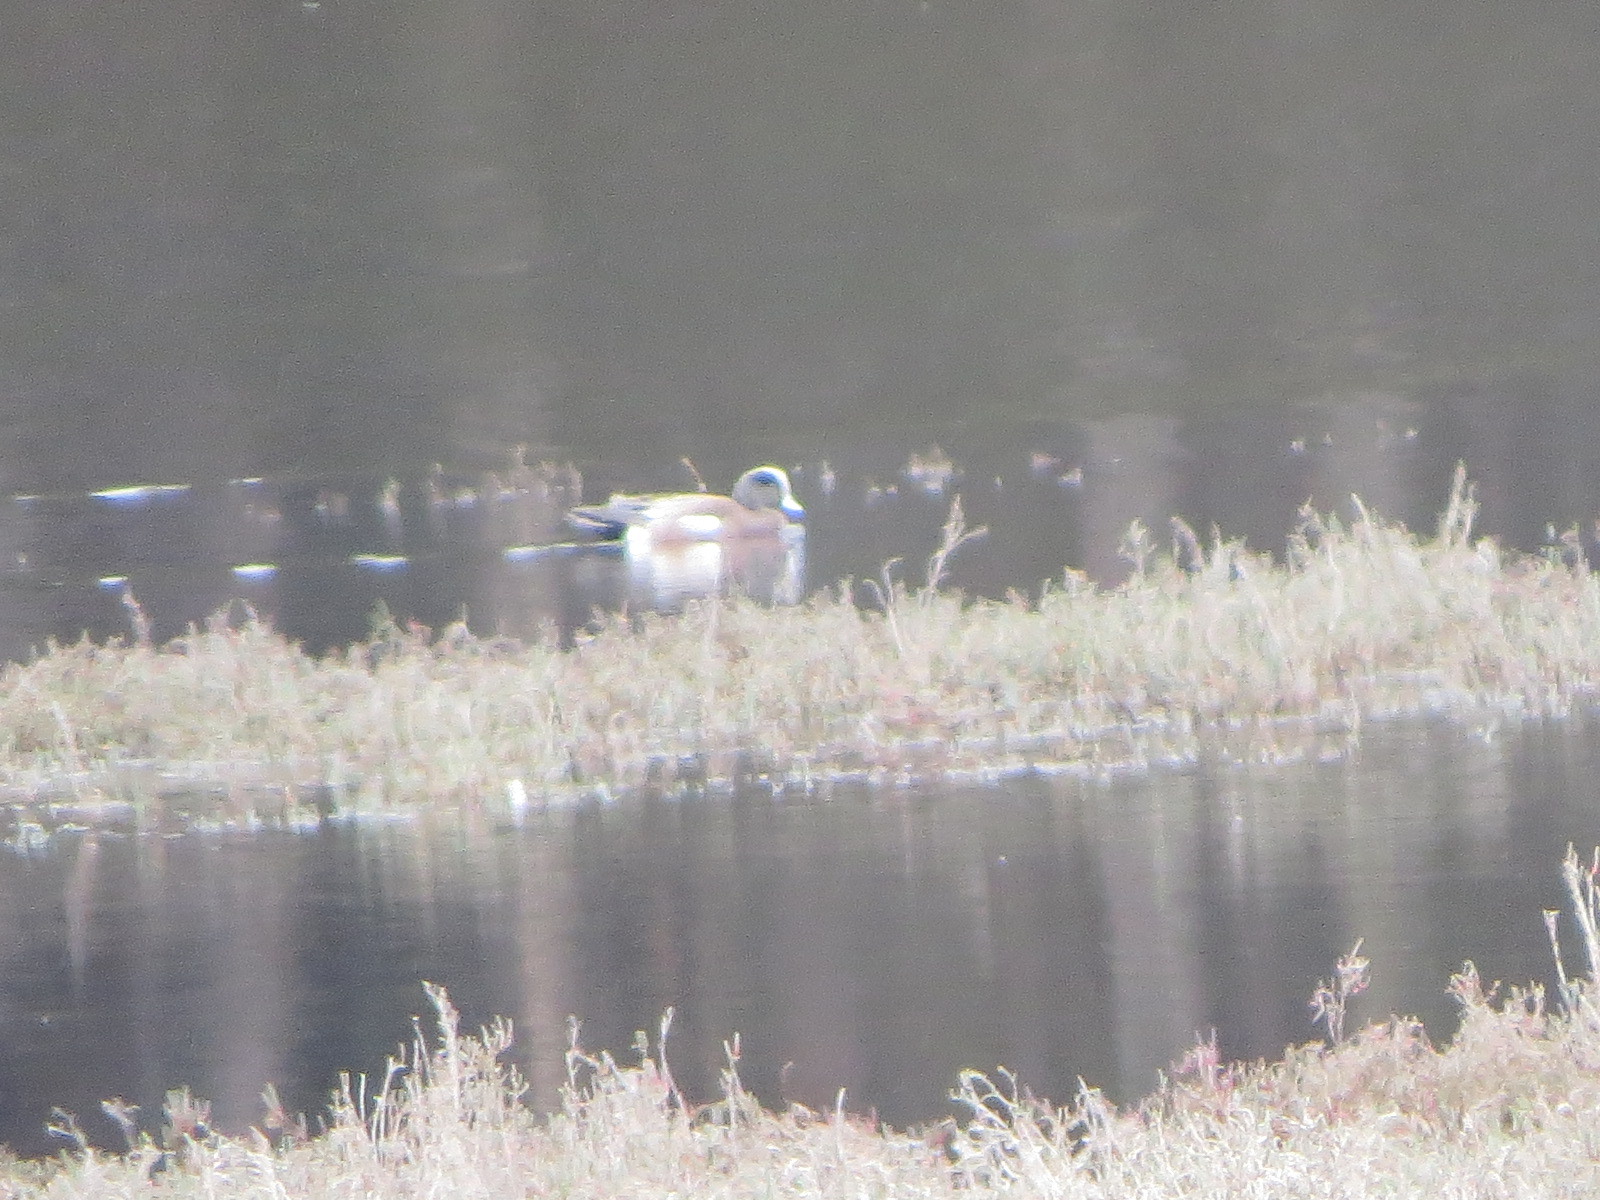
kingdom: Animalia
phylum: Chordata
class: Aves
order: Anseriformes
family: Anatidae
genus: Mareca
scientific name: Mareca americana
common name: American wigeon
